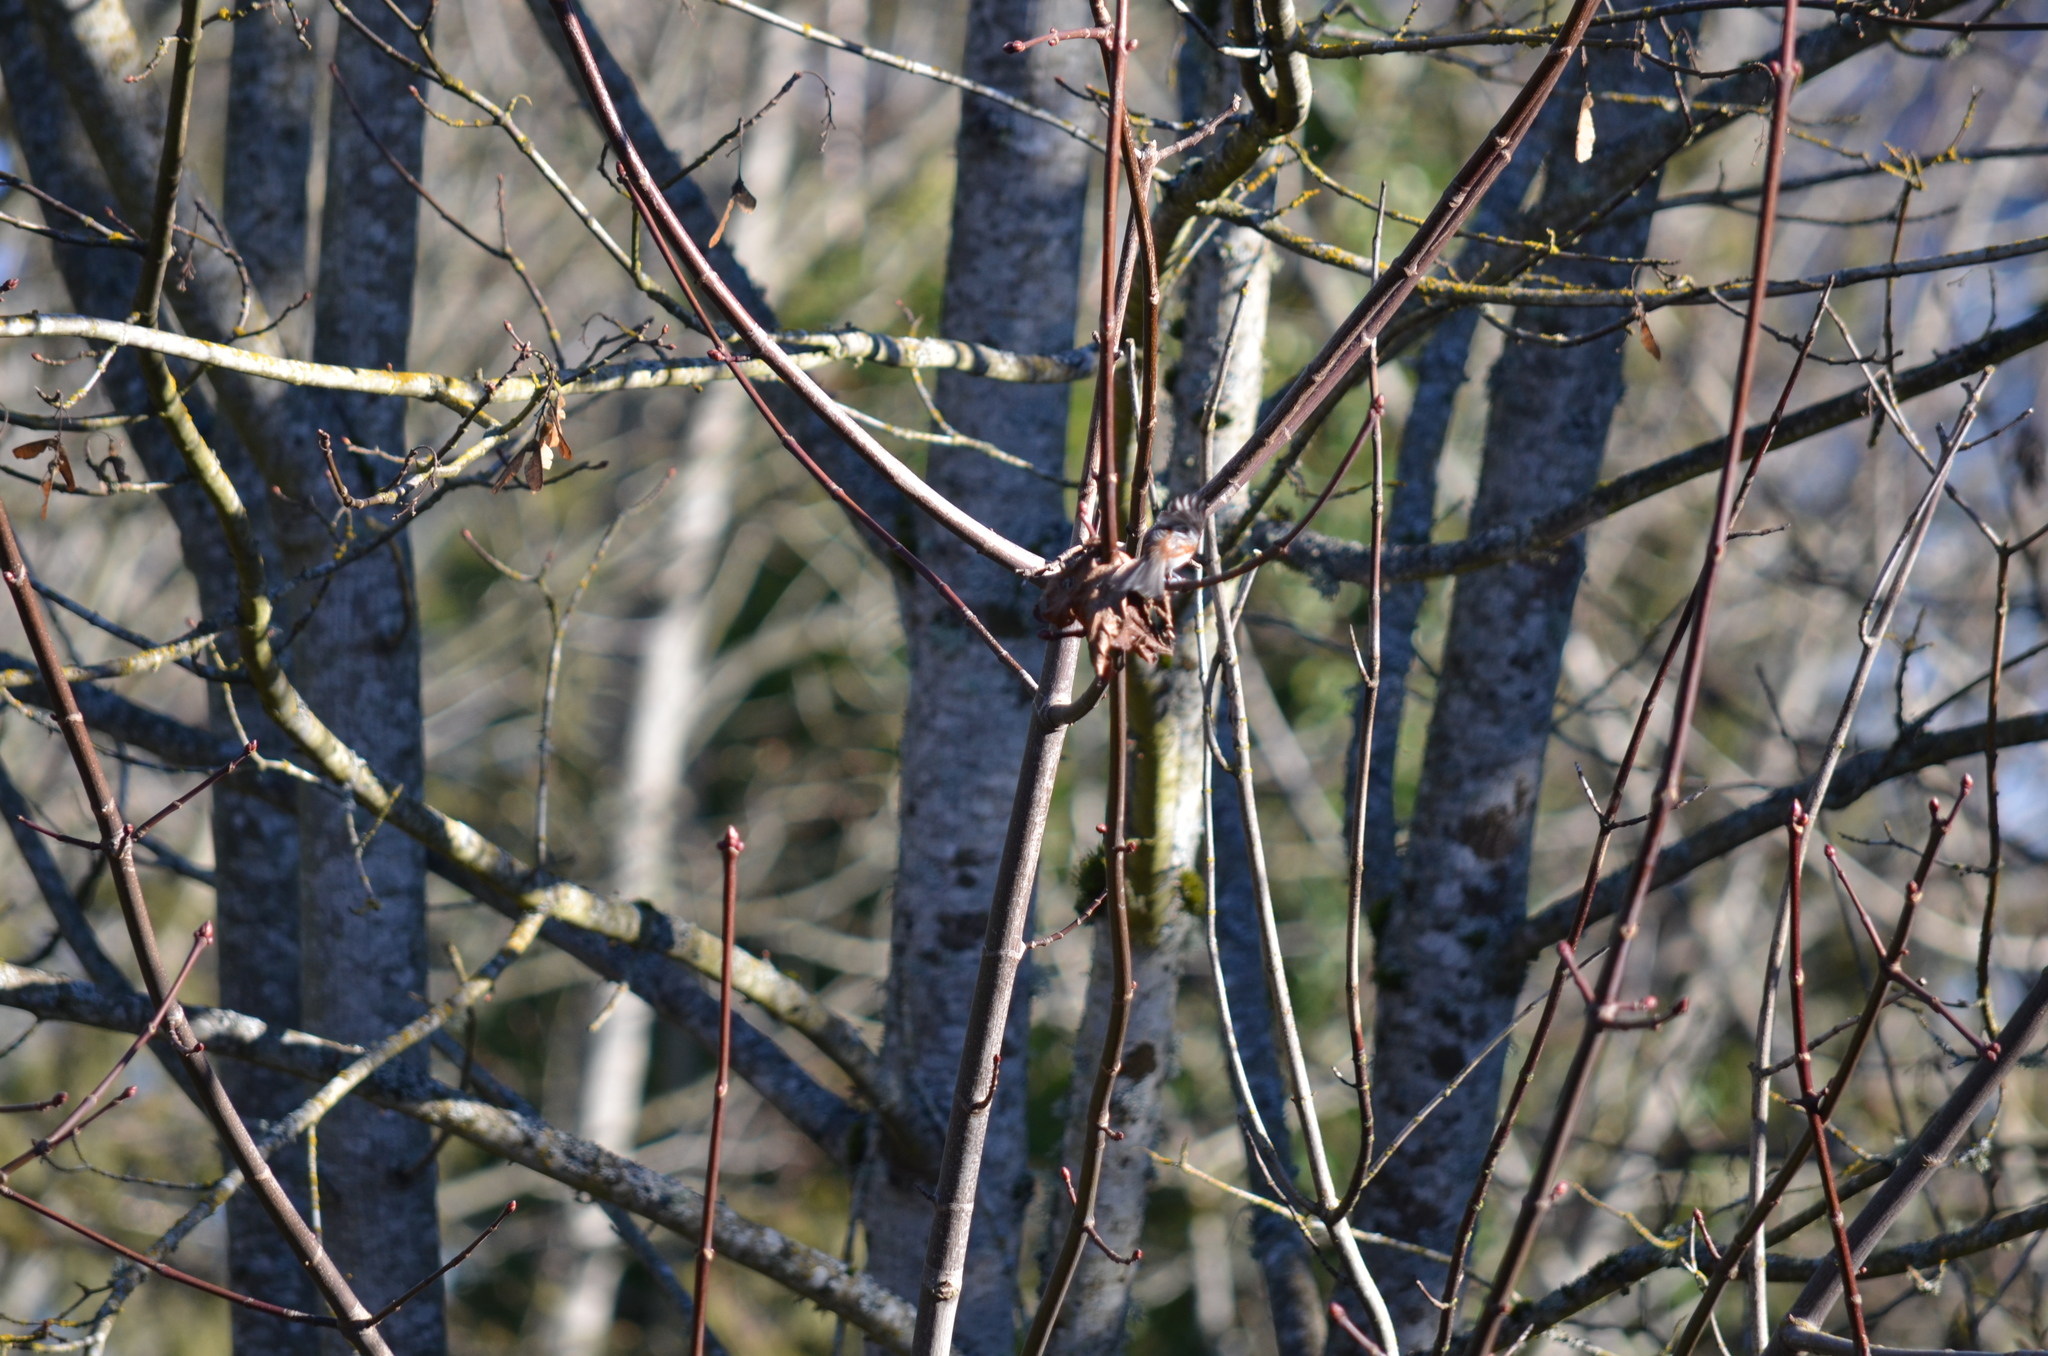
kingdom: Animalia
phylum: Chordata
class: Aves
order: Passeriformes
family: Paridae
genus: Poecile
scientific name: Poecile rufescens
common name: Chestnut-backed chickadee
